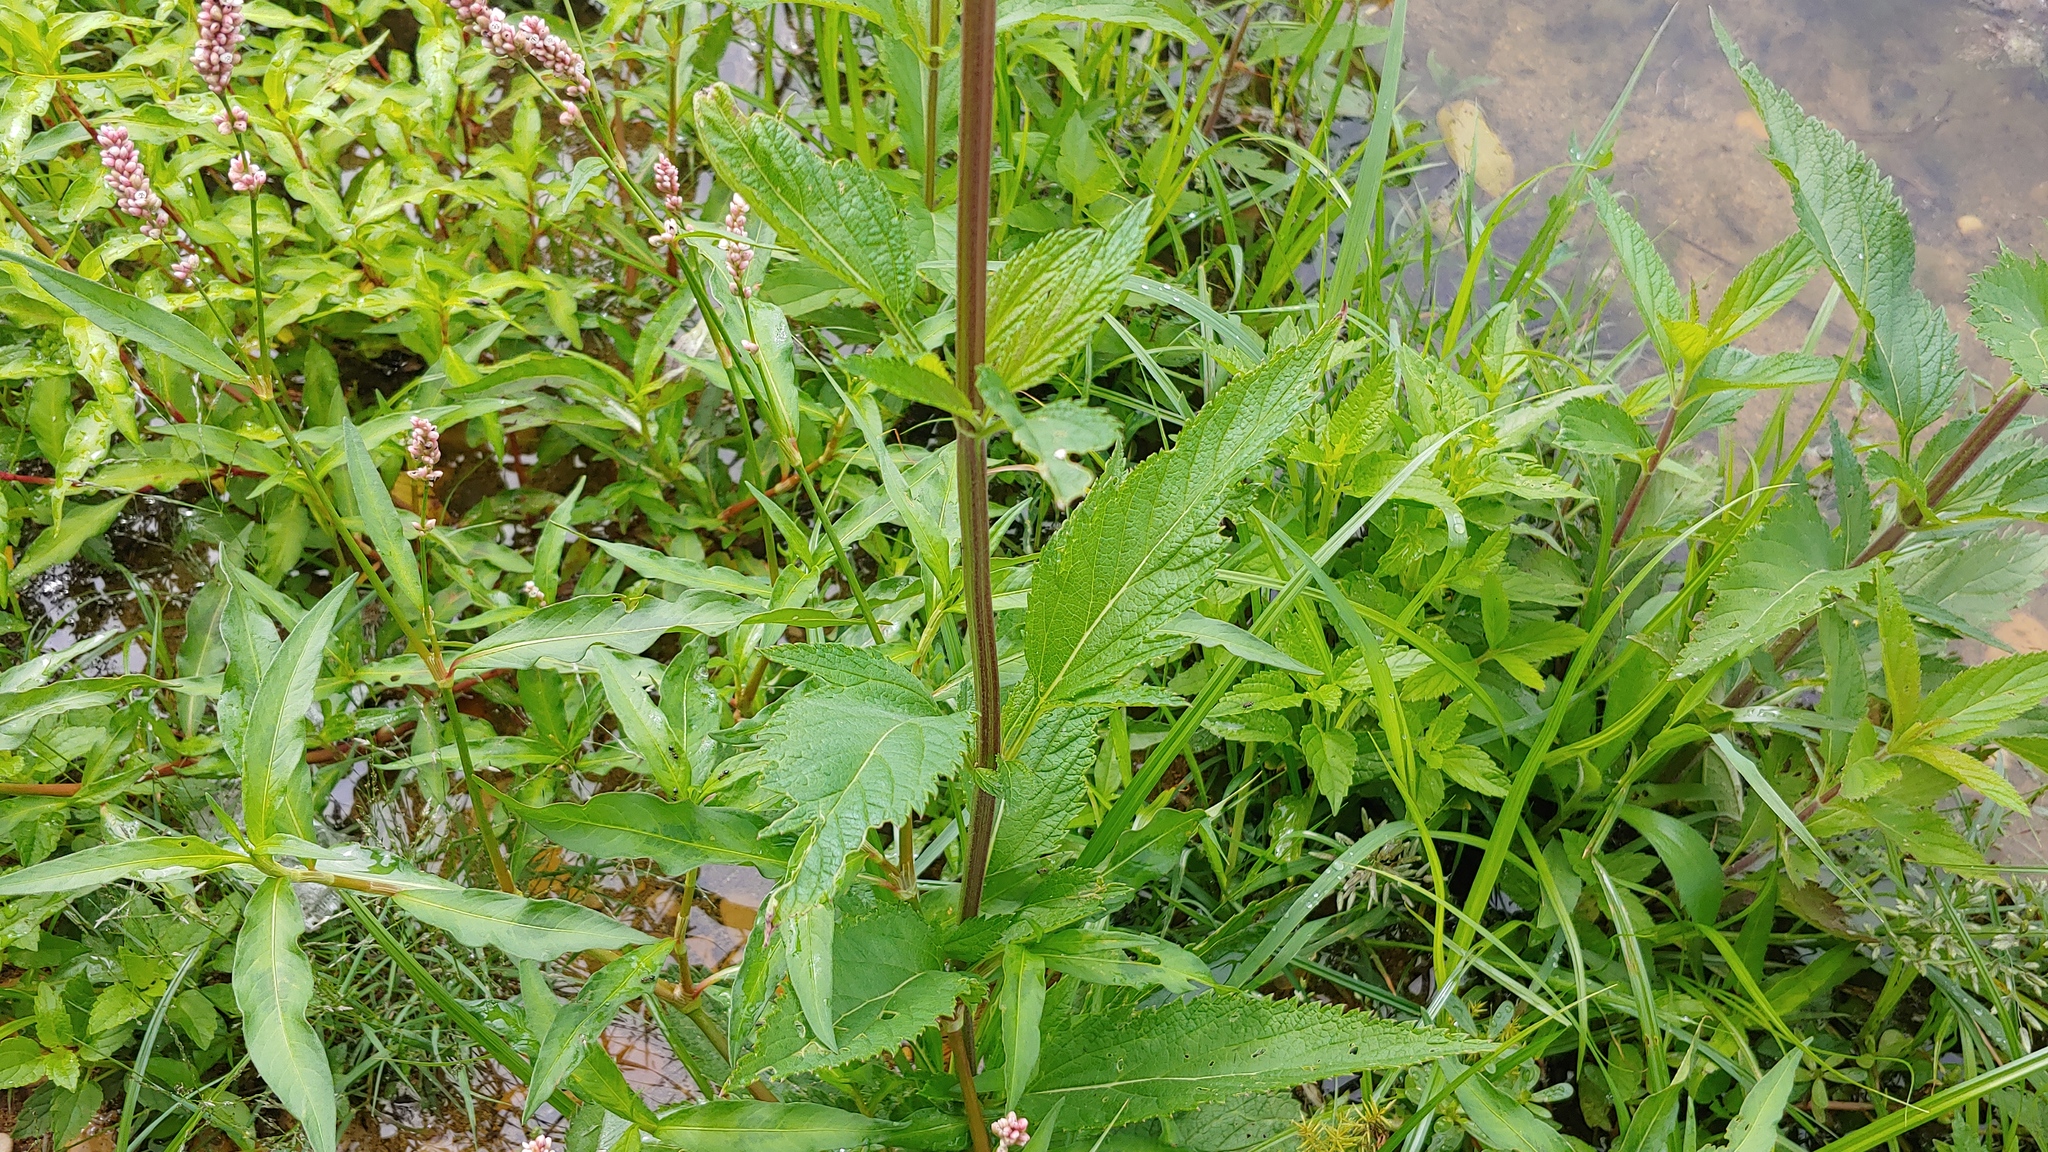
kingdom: Plantae
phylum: Tracheophyta
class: Magnoliopsida
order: Lamiales
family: Verbenaceae
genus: Verbena
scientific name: Verbena hastata
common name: American blue vervain
